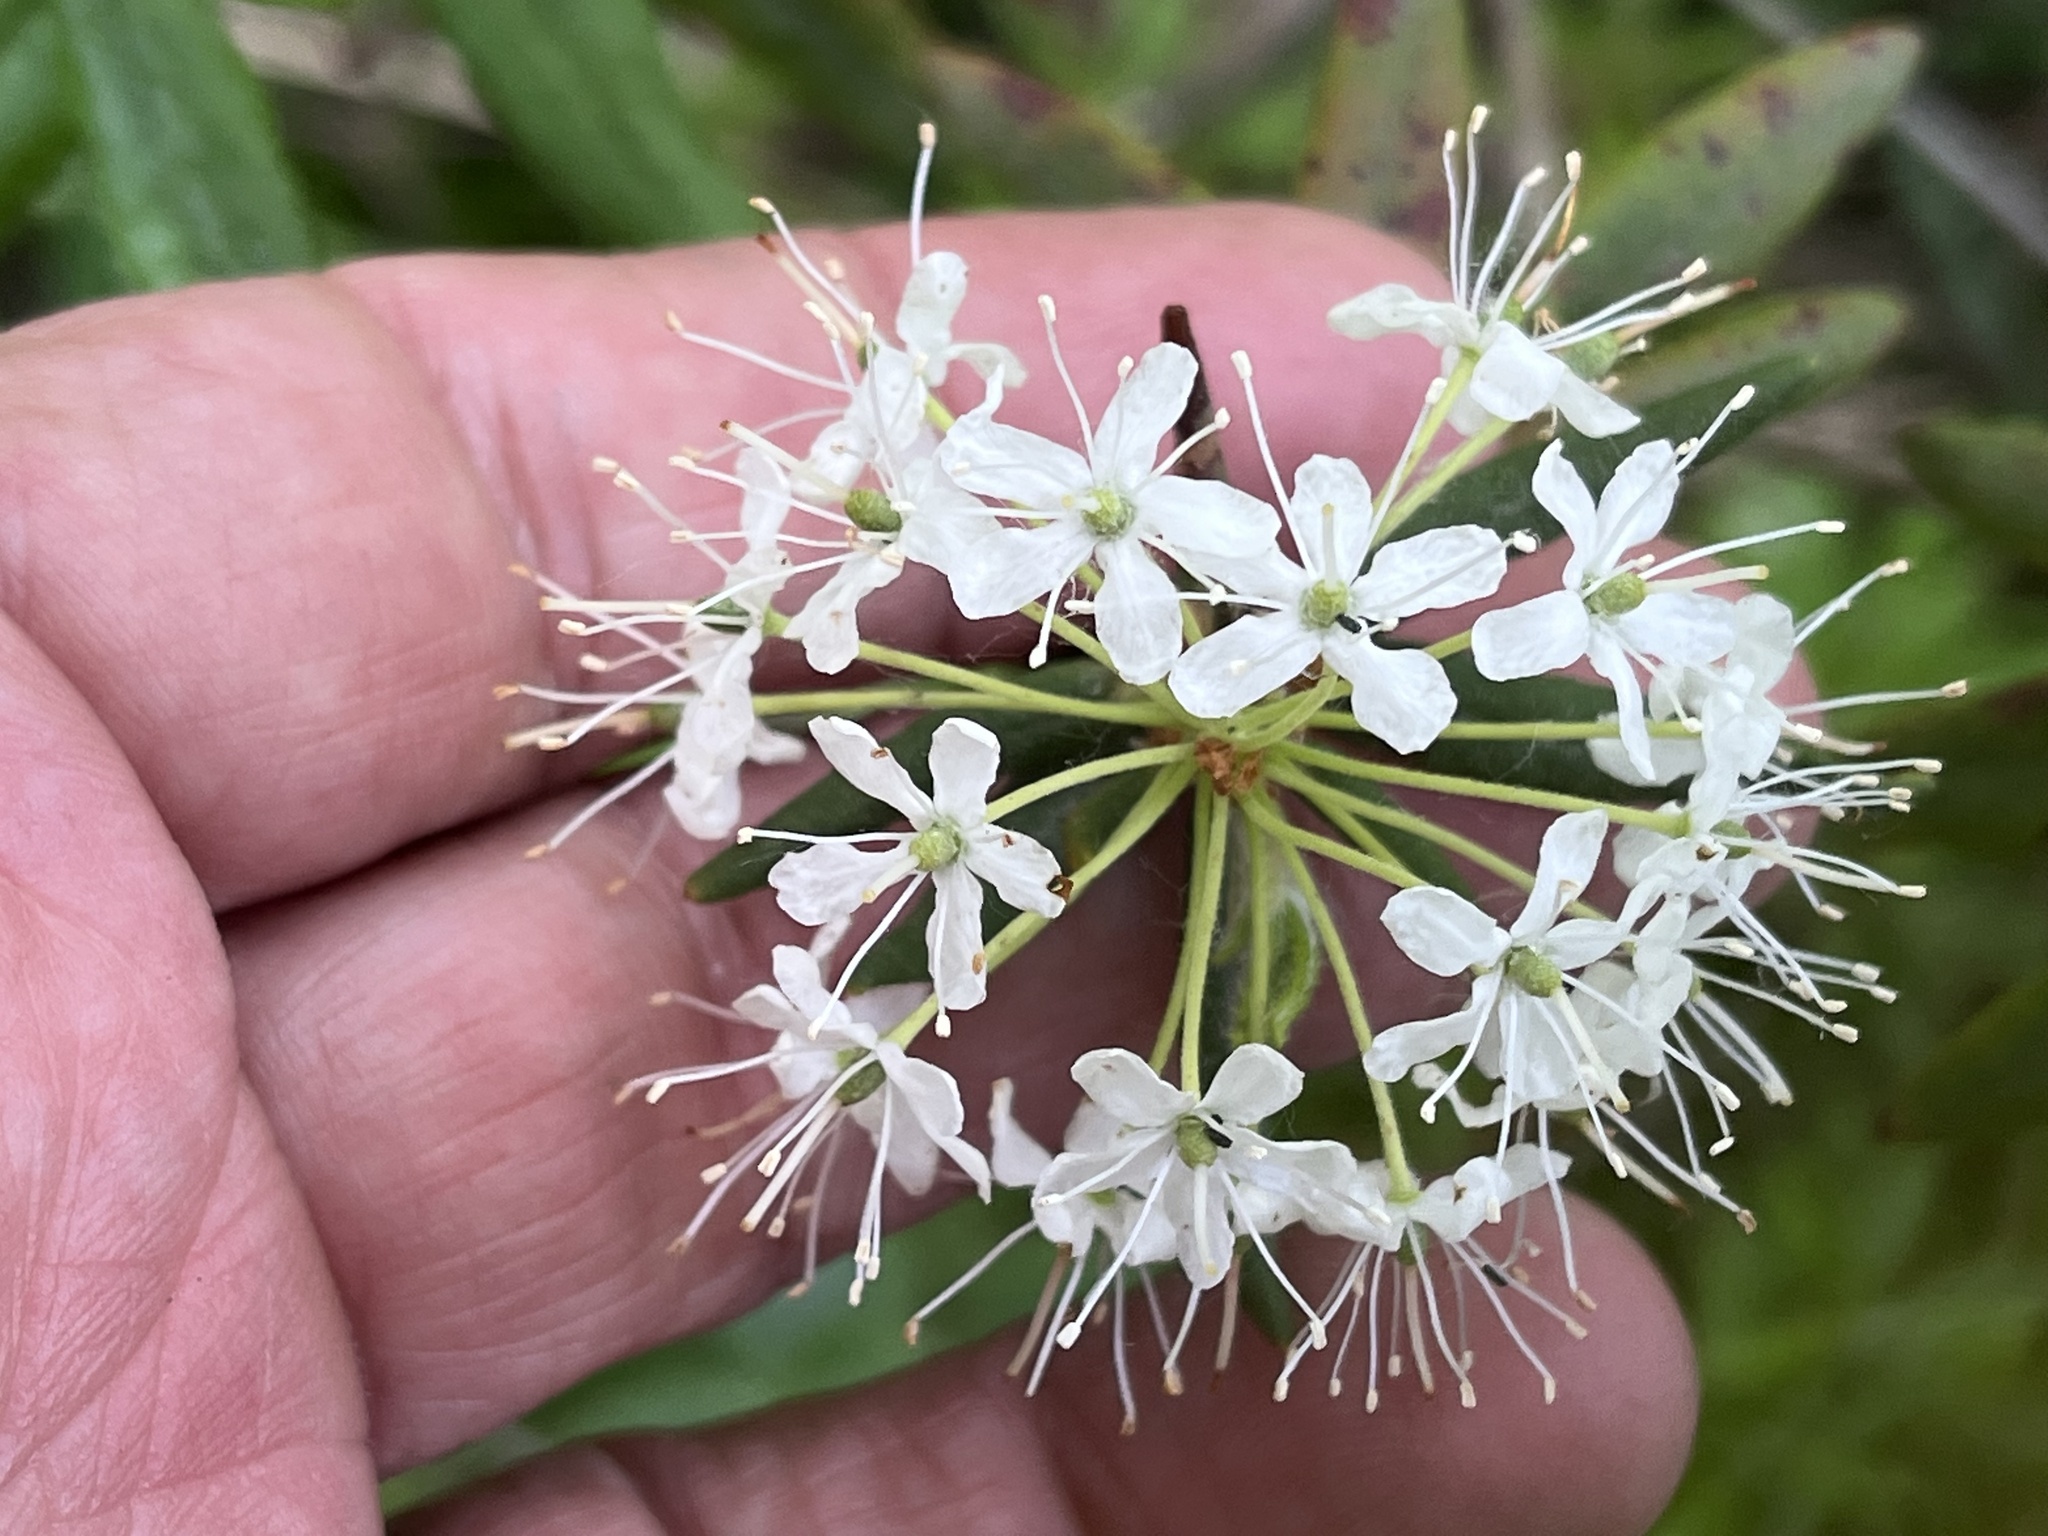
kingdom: Plantae
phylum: Tracheophyta
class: Magnoliopsida
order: Ericales
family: Ericaceae
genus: Rhododendron
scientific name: Rhododendron groenlandicum
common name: Bog labrador tea
